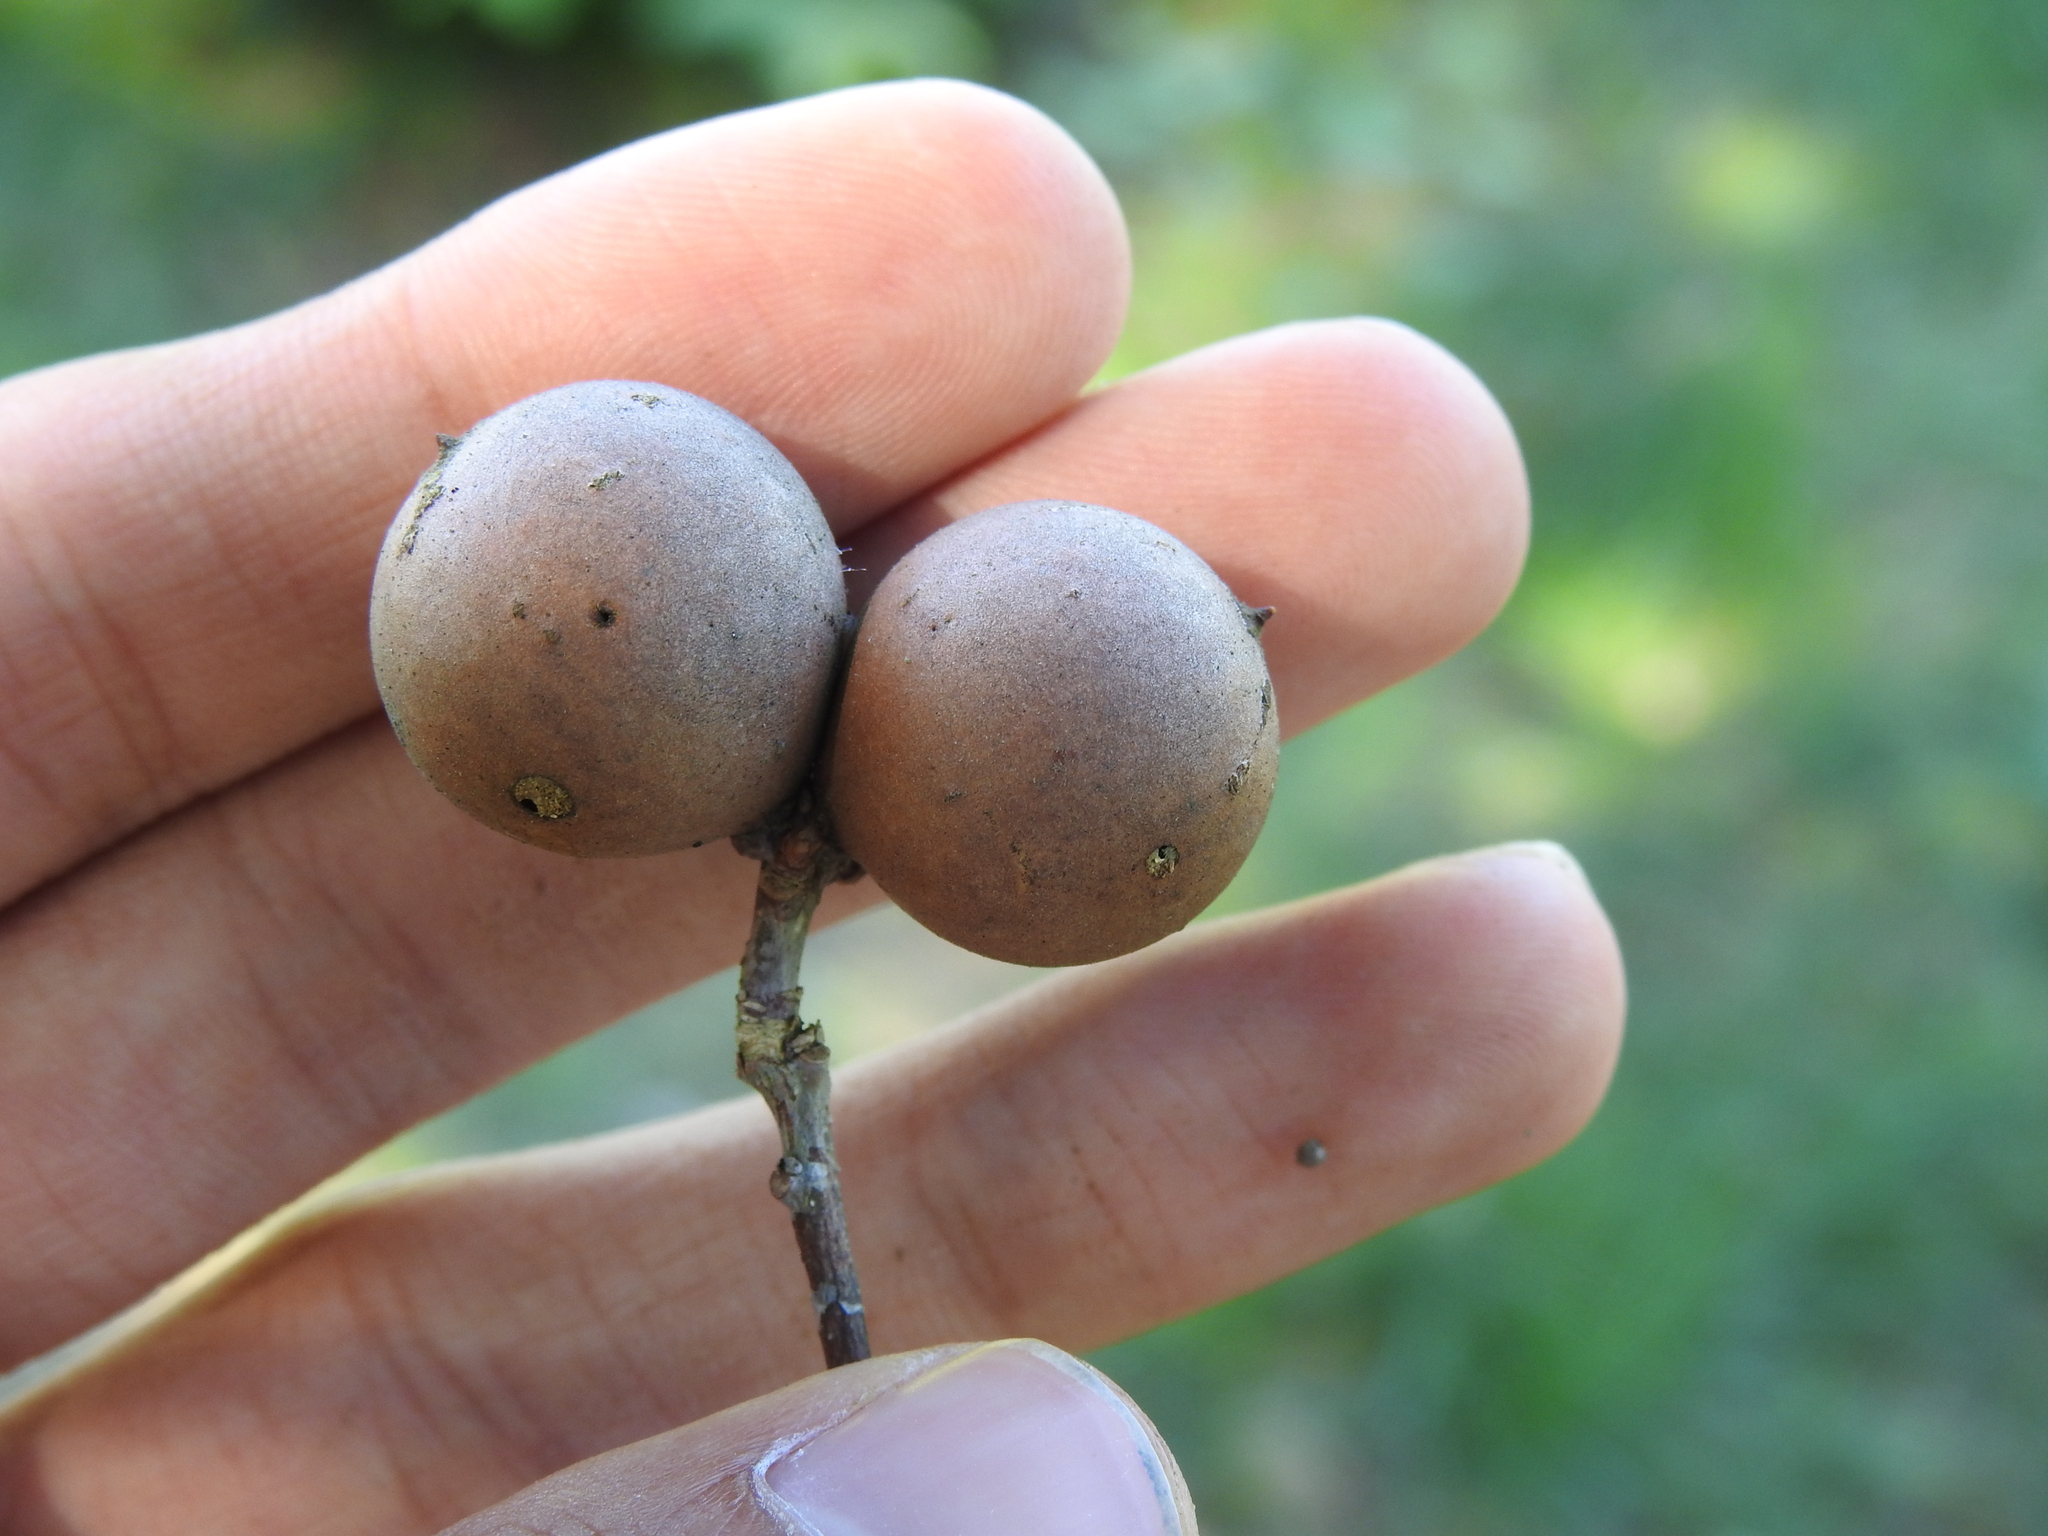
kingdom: Animalia
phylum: Arthropoda
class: Insecta
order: Hymenoptera
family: Cynipidae
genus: Andricus
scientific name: Andricus kollari
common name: Marble gall
